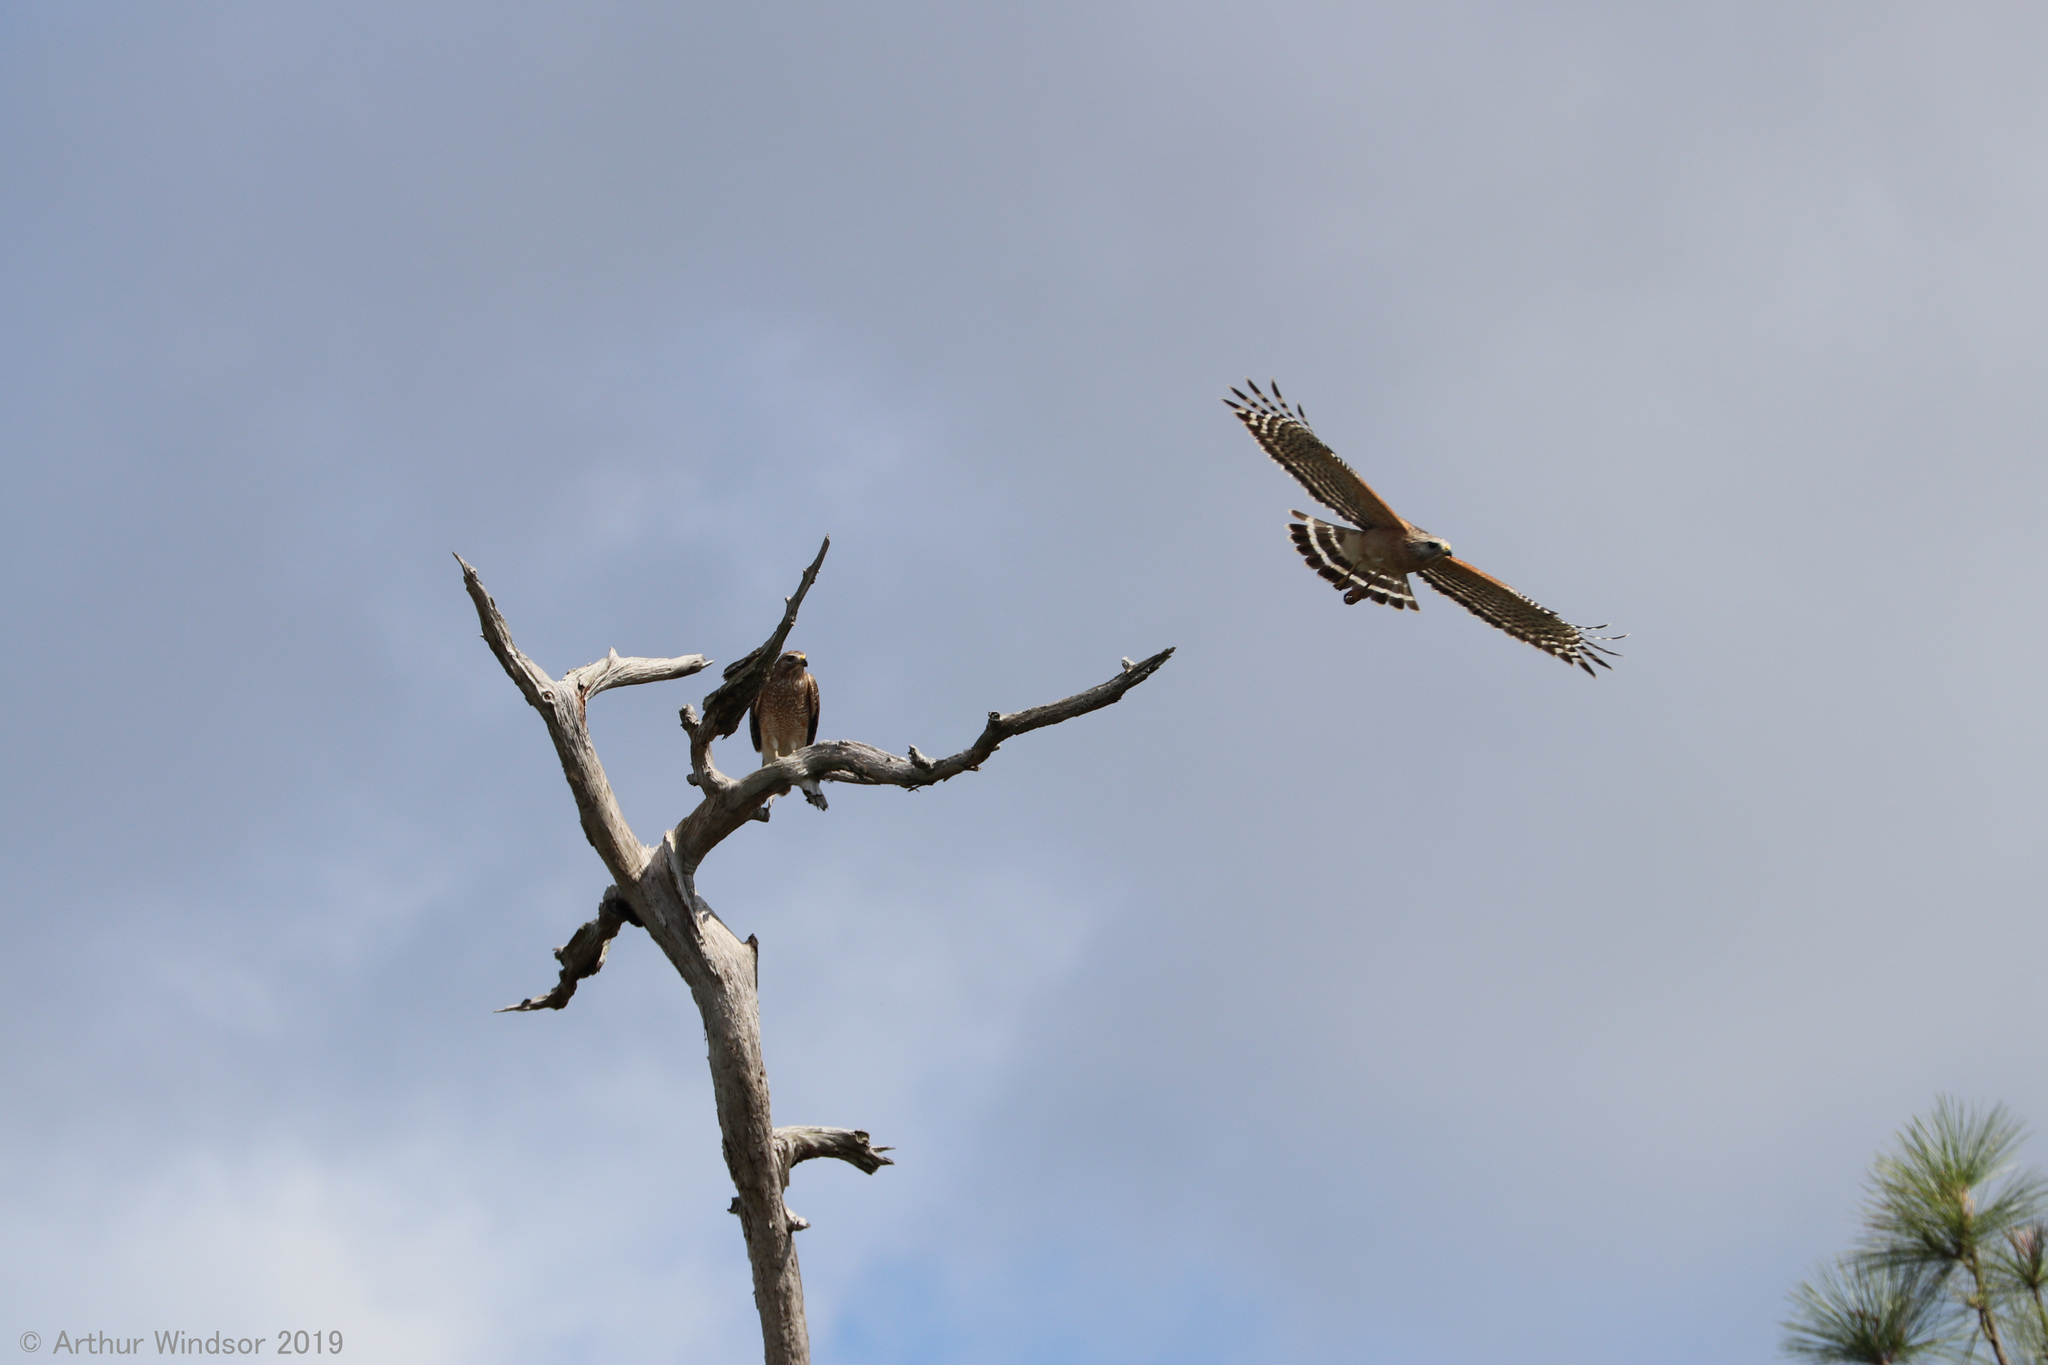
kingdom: Animalia
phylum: Chordata
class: Aves
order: Accipitriformes
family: Accipitridae
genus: Buteo
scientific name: Buteo lineatus
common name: Red-shouldered hawk
